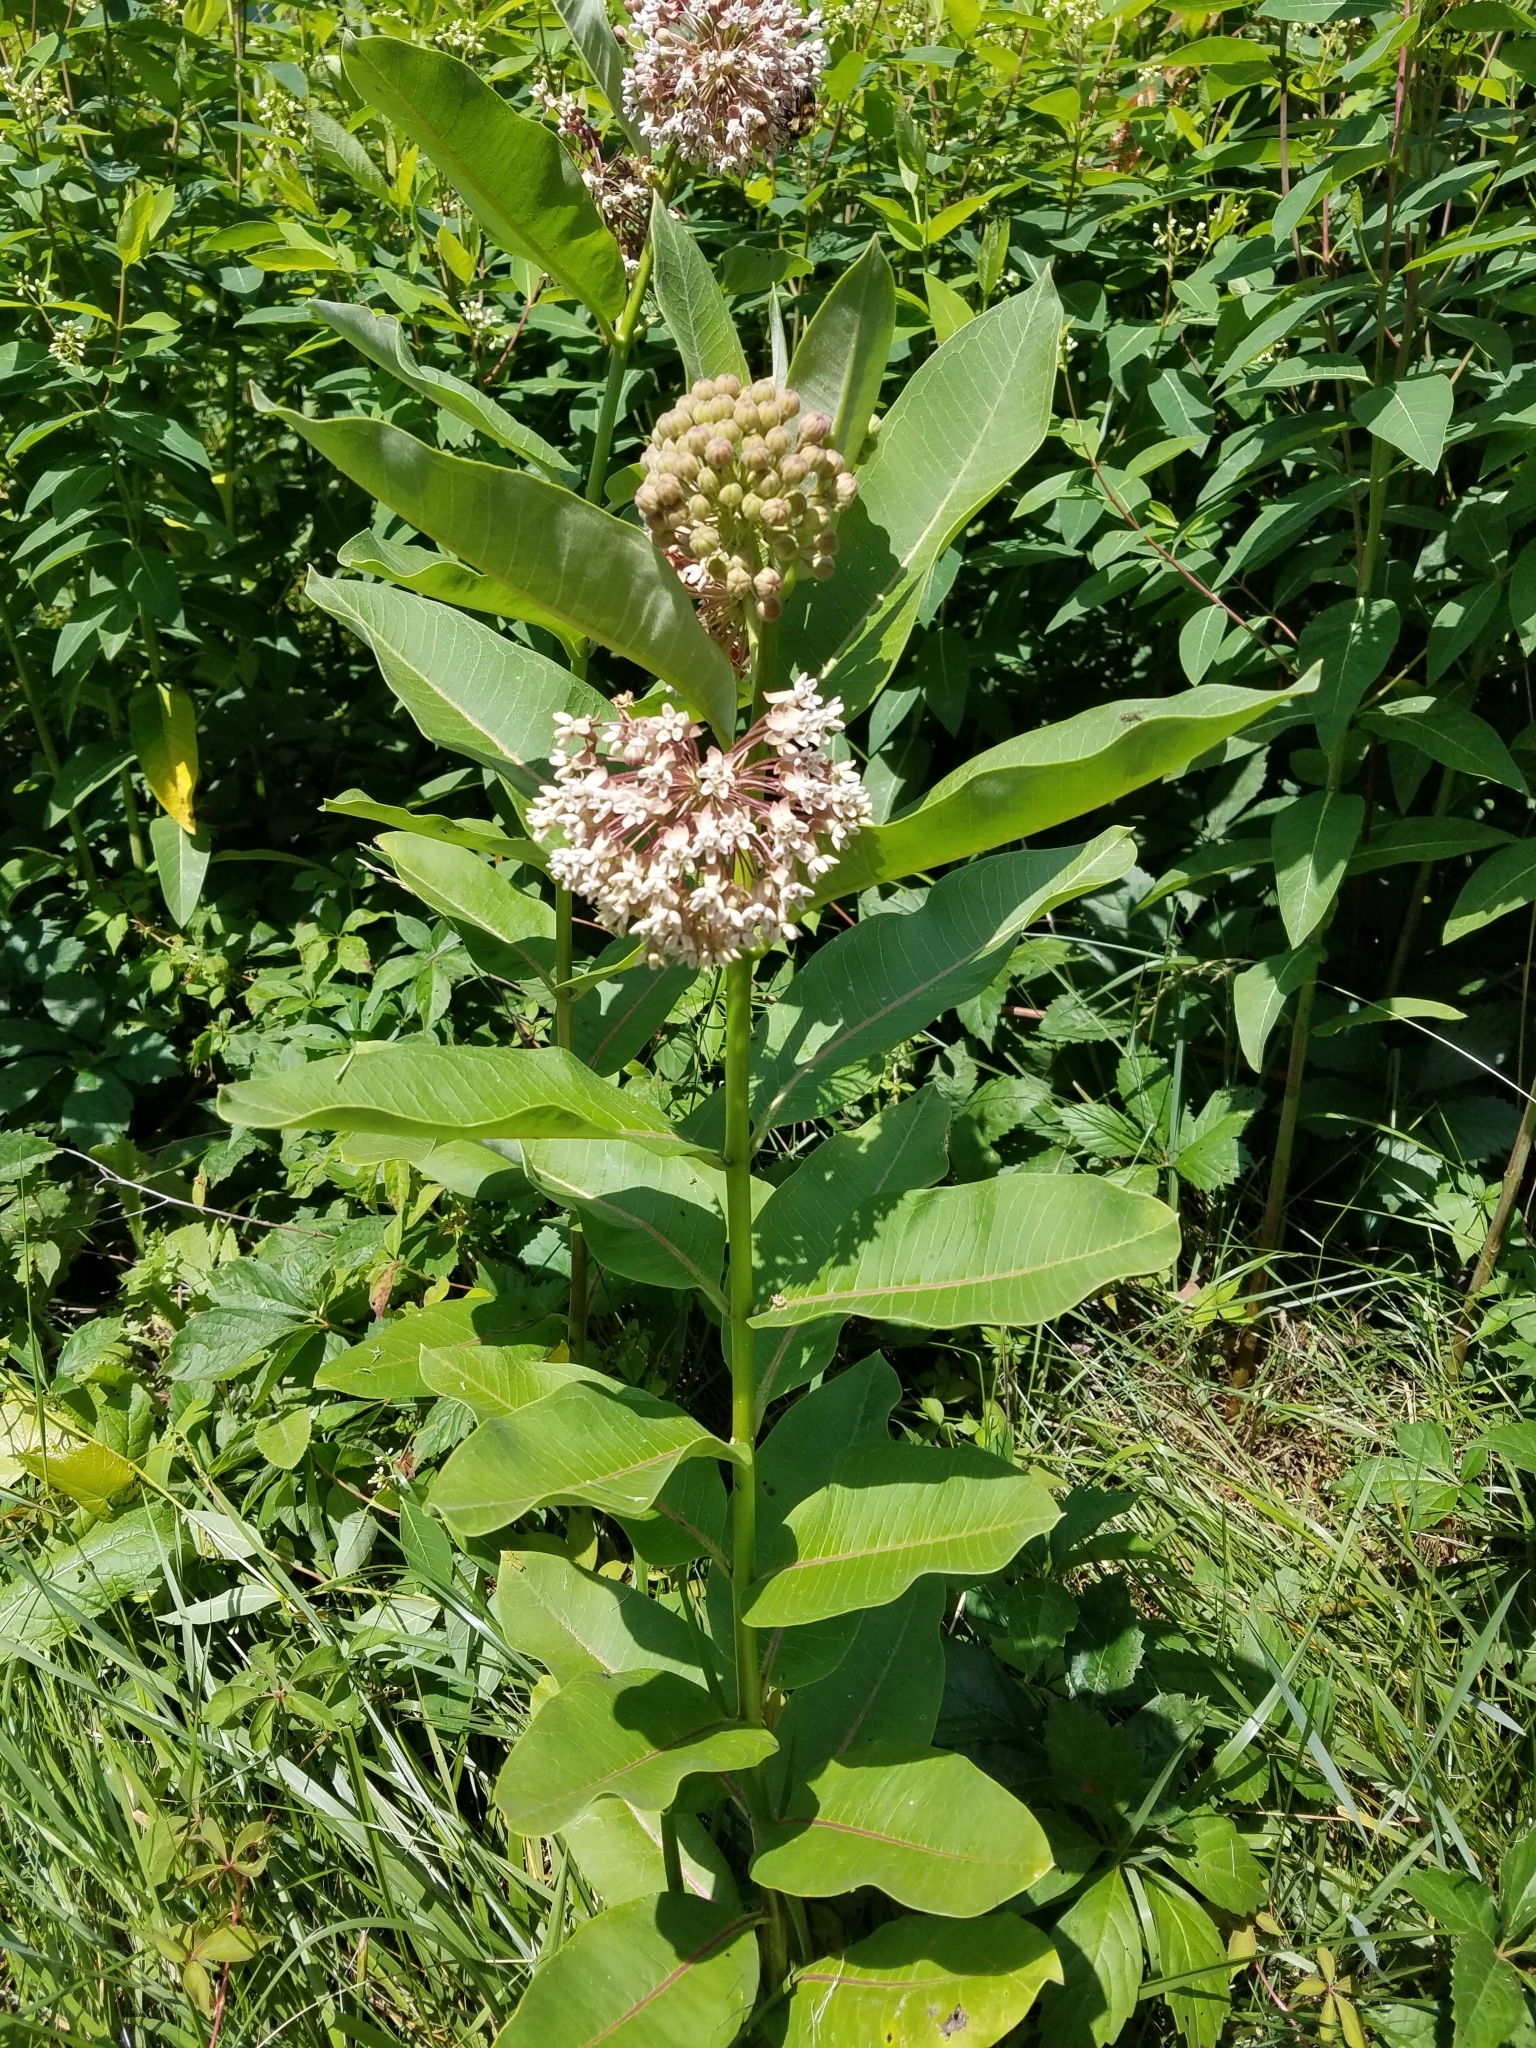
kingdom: Plantae
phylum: Tracheophyta
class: Magnoliopsida
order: Gentianales
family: Apocynaceae
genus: Asclepias
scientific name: Asclepias syriaca
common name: Common milkweed
